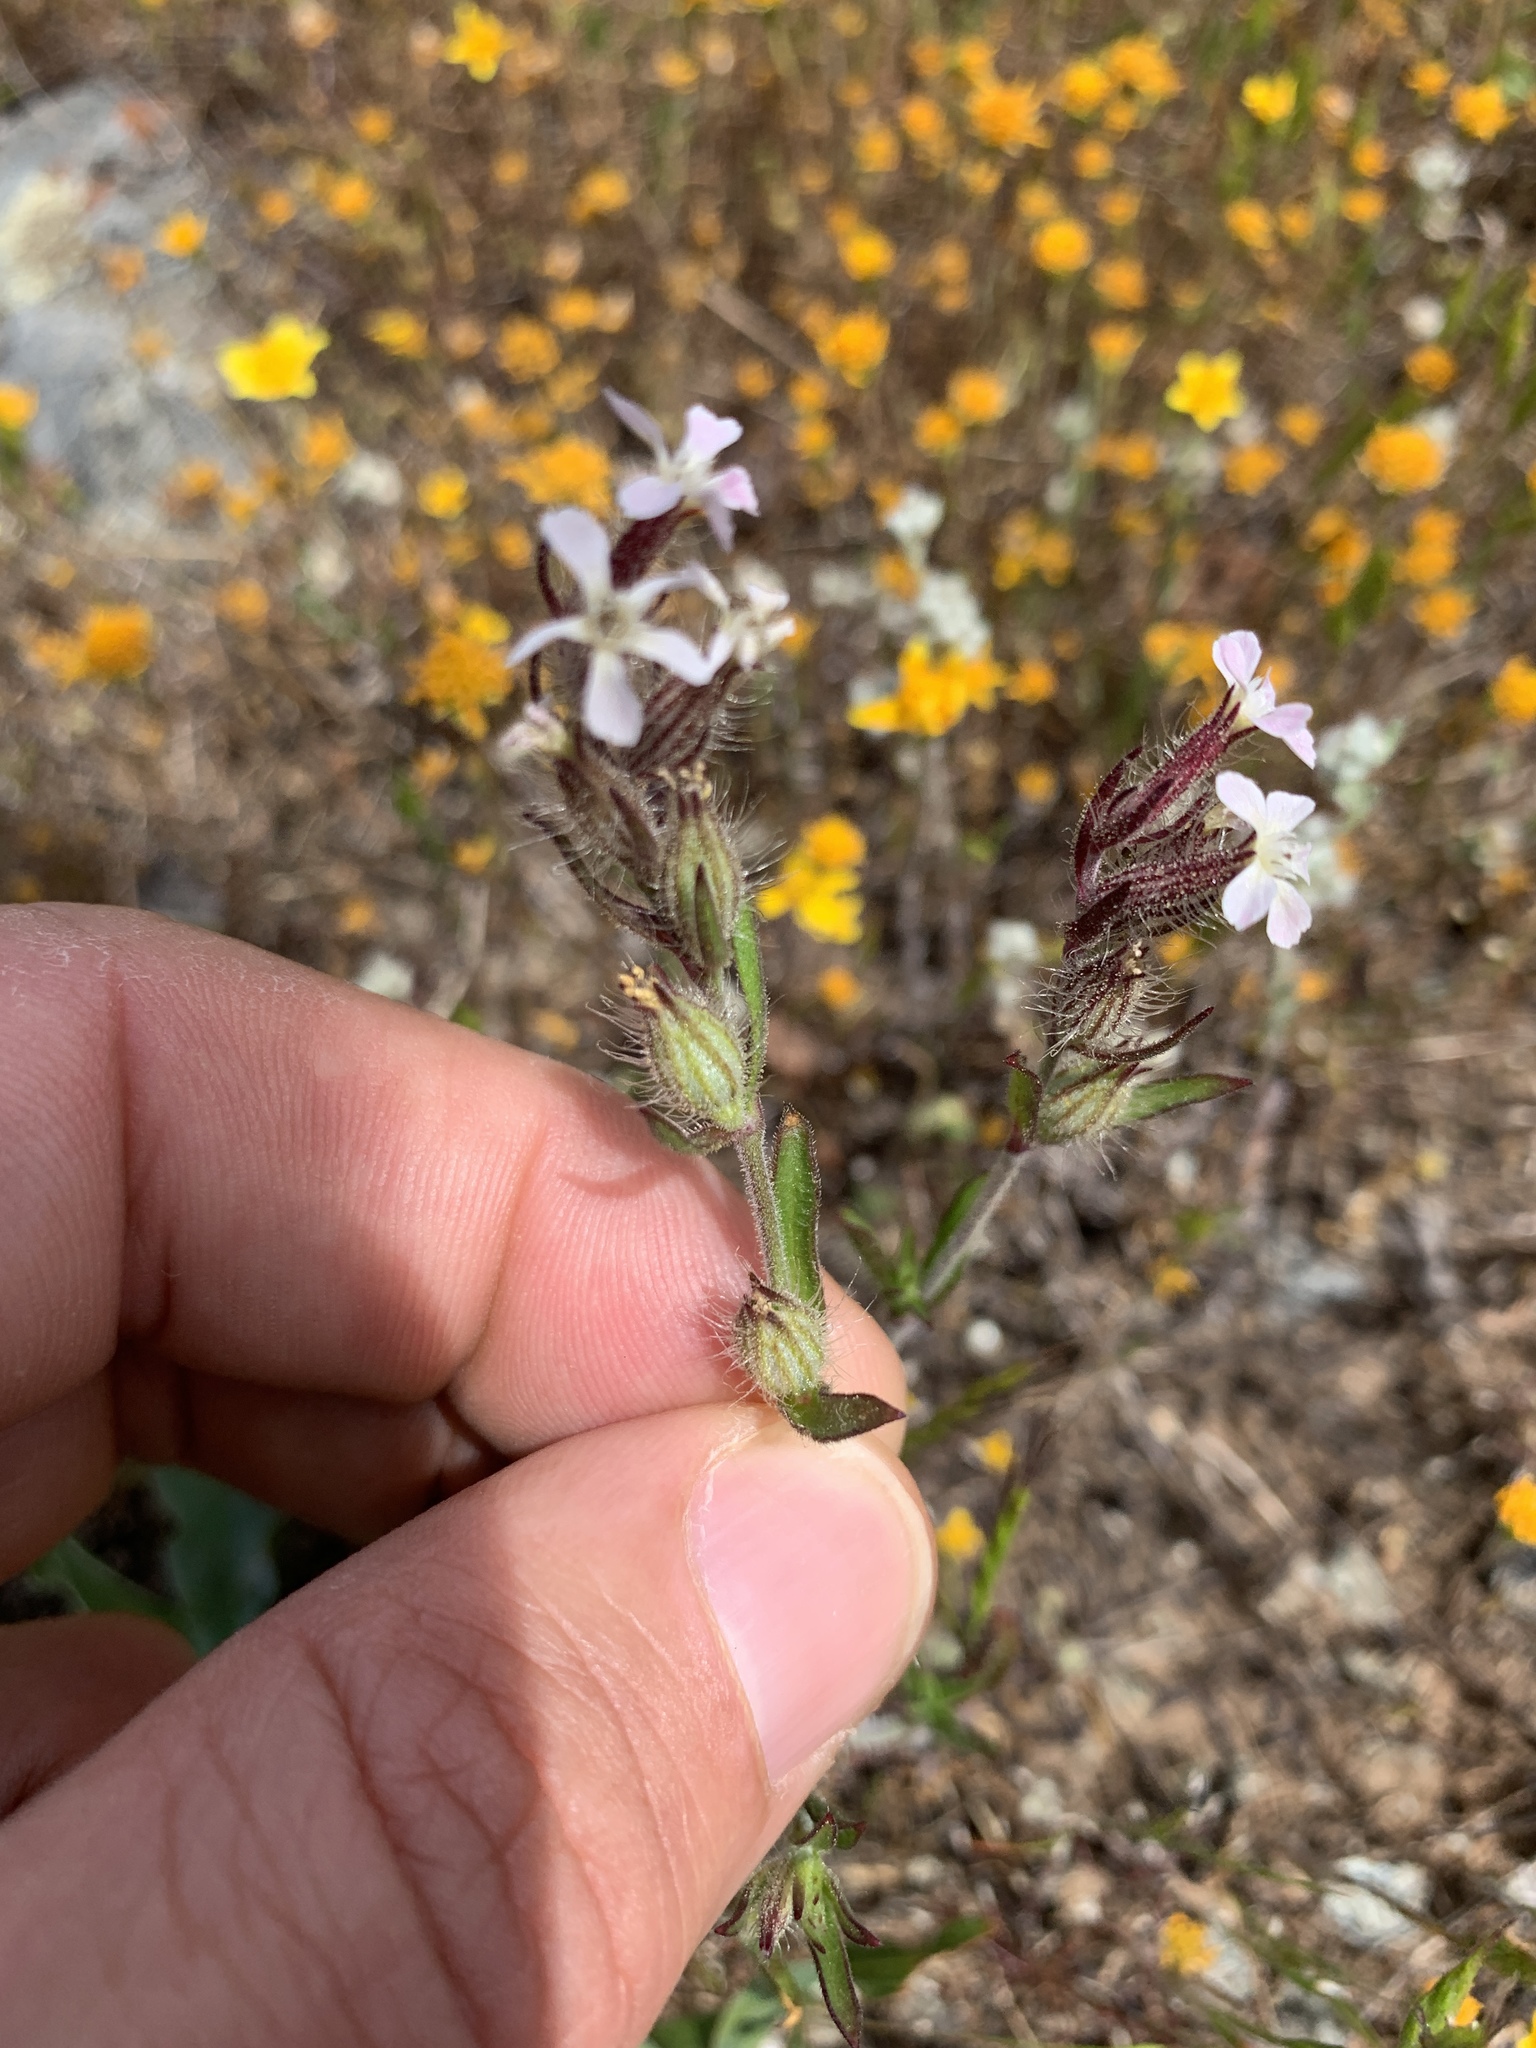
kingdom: Plantae
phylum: Tracheophyta
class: Magnoliopsida
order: Caryophyllales
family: Caryophyllaceae
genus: Silene
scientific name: Silene gallica
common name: Small-flowered catchfly
